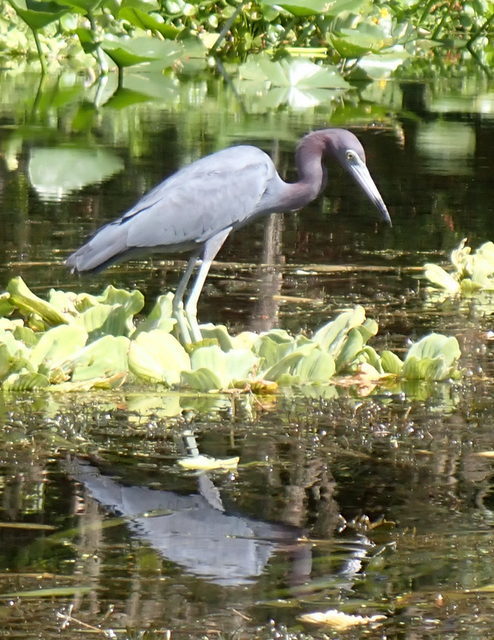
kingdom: Animalia
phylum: Chordata
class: Aves
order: Pelecaniformes
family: Ardeidae
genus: Egretta
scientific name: Egretta caerulea
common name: Little blue heron
